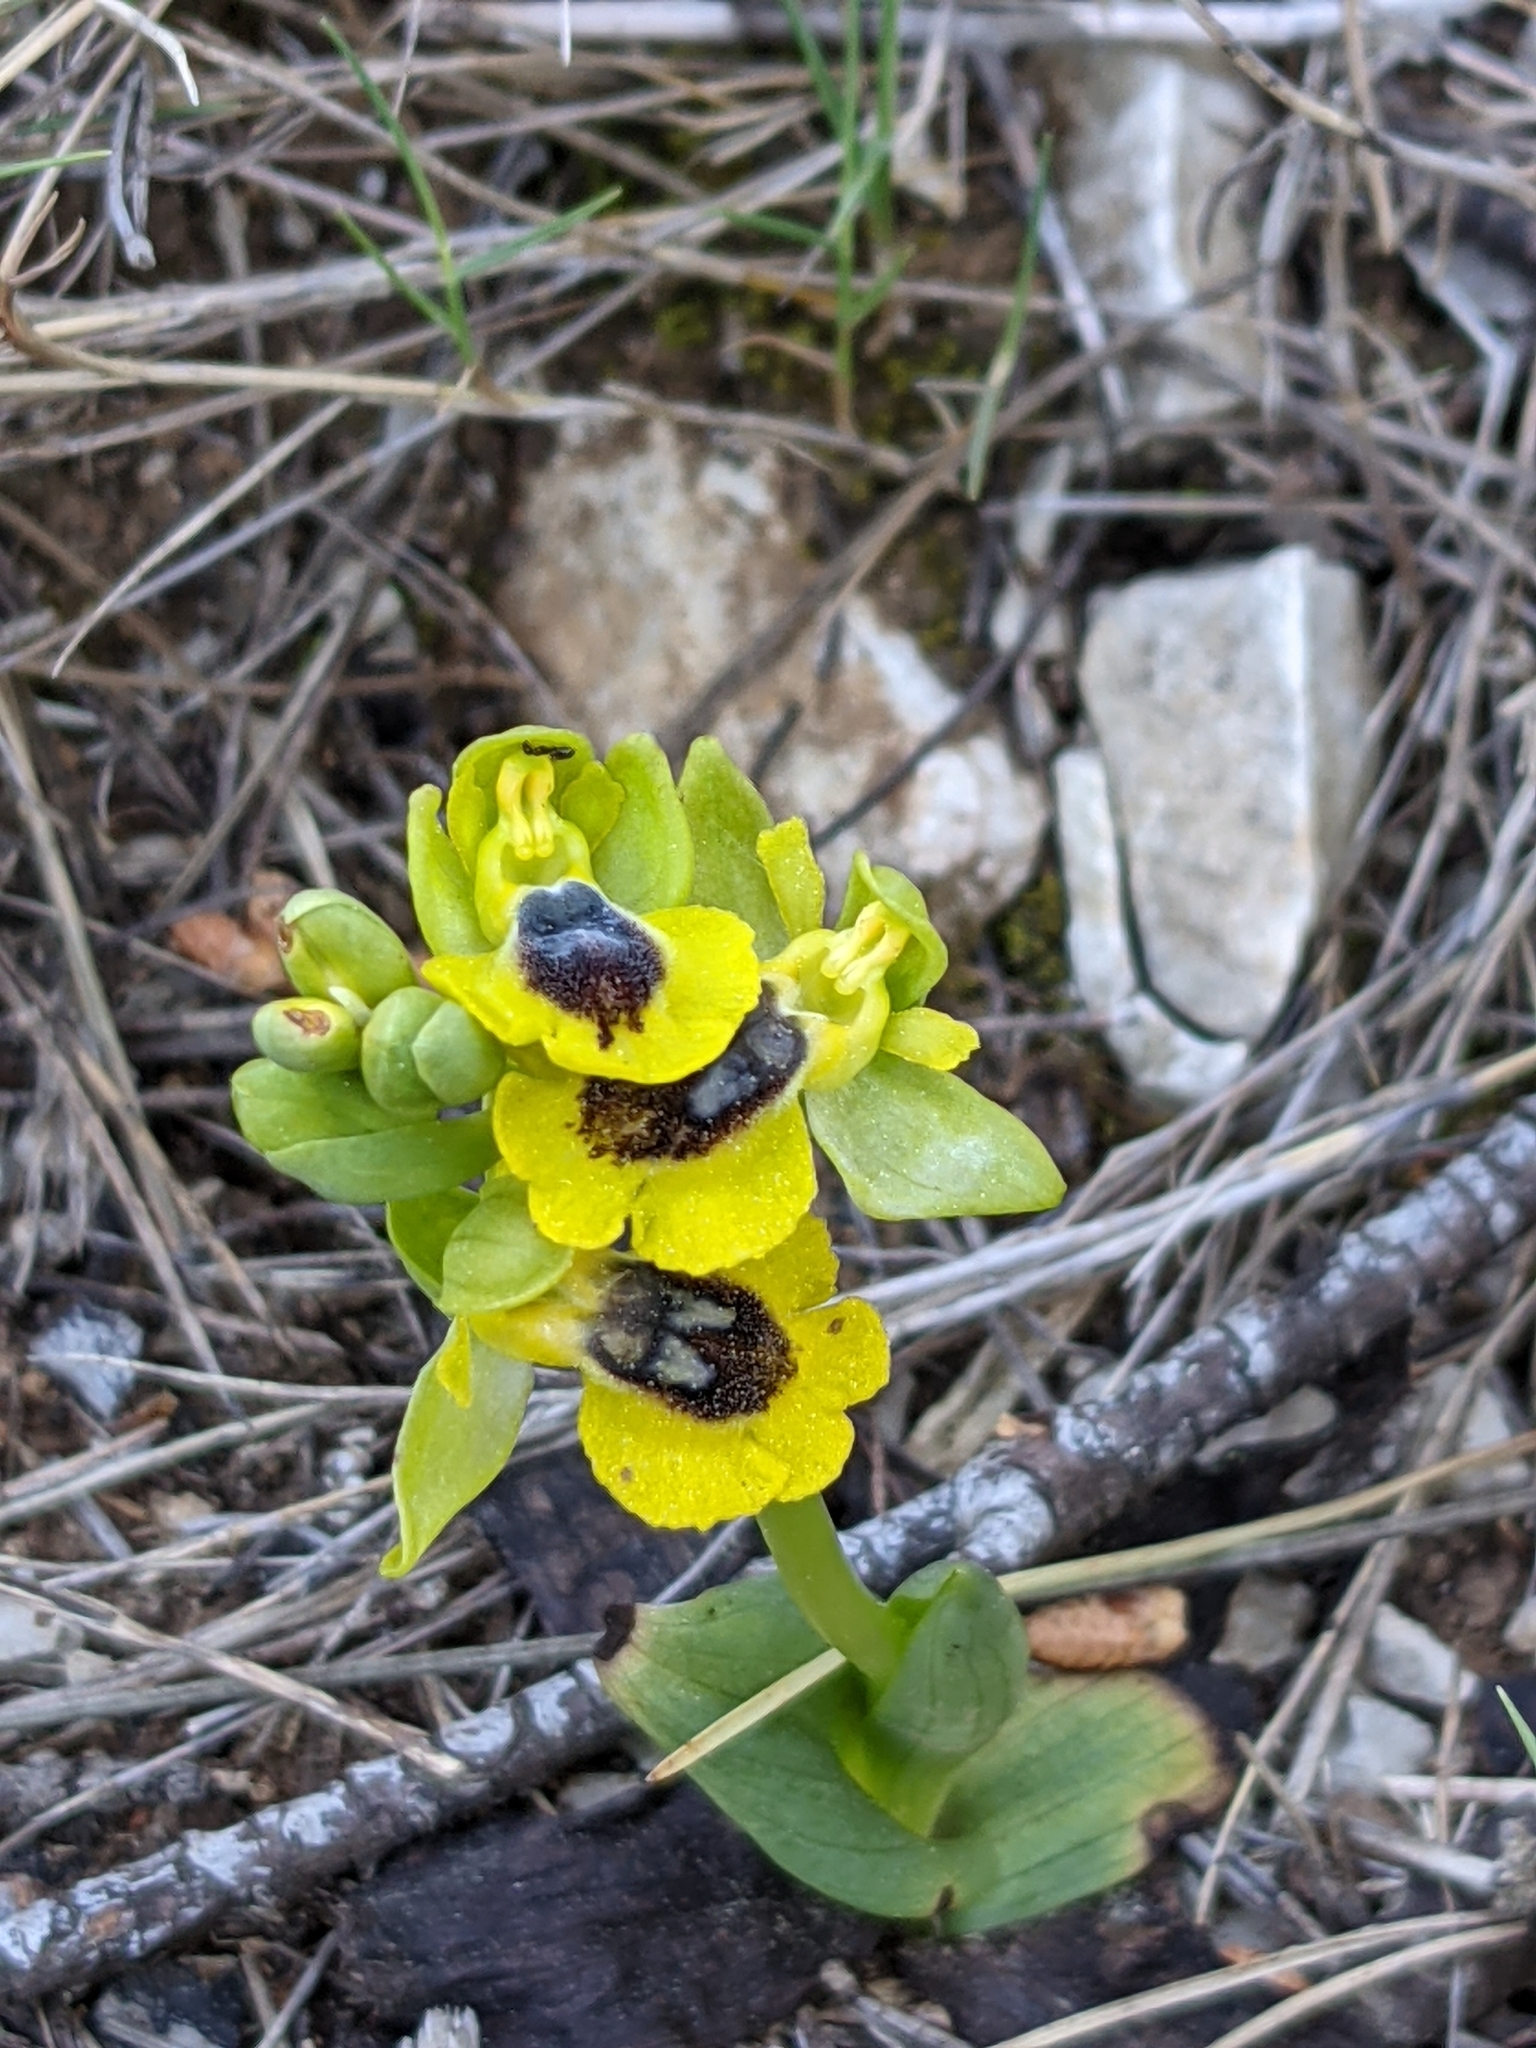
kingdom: Plantae
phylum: Tracheophyta
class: Liliopsida
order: Asparagales
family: Orchidaceae
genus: Ophrys
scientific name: Ophrys lutea
